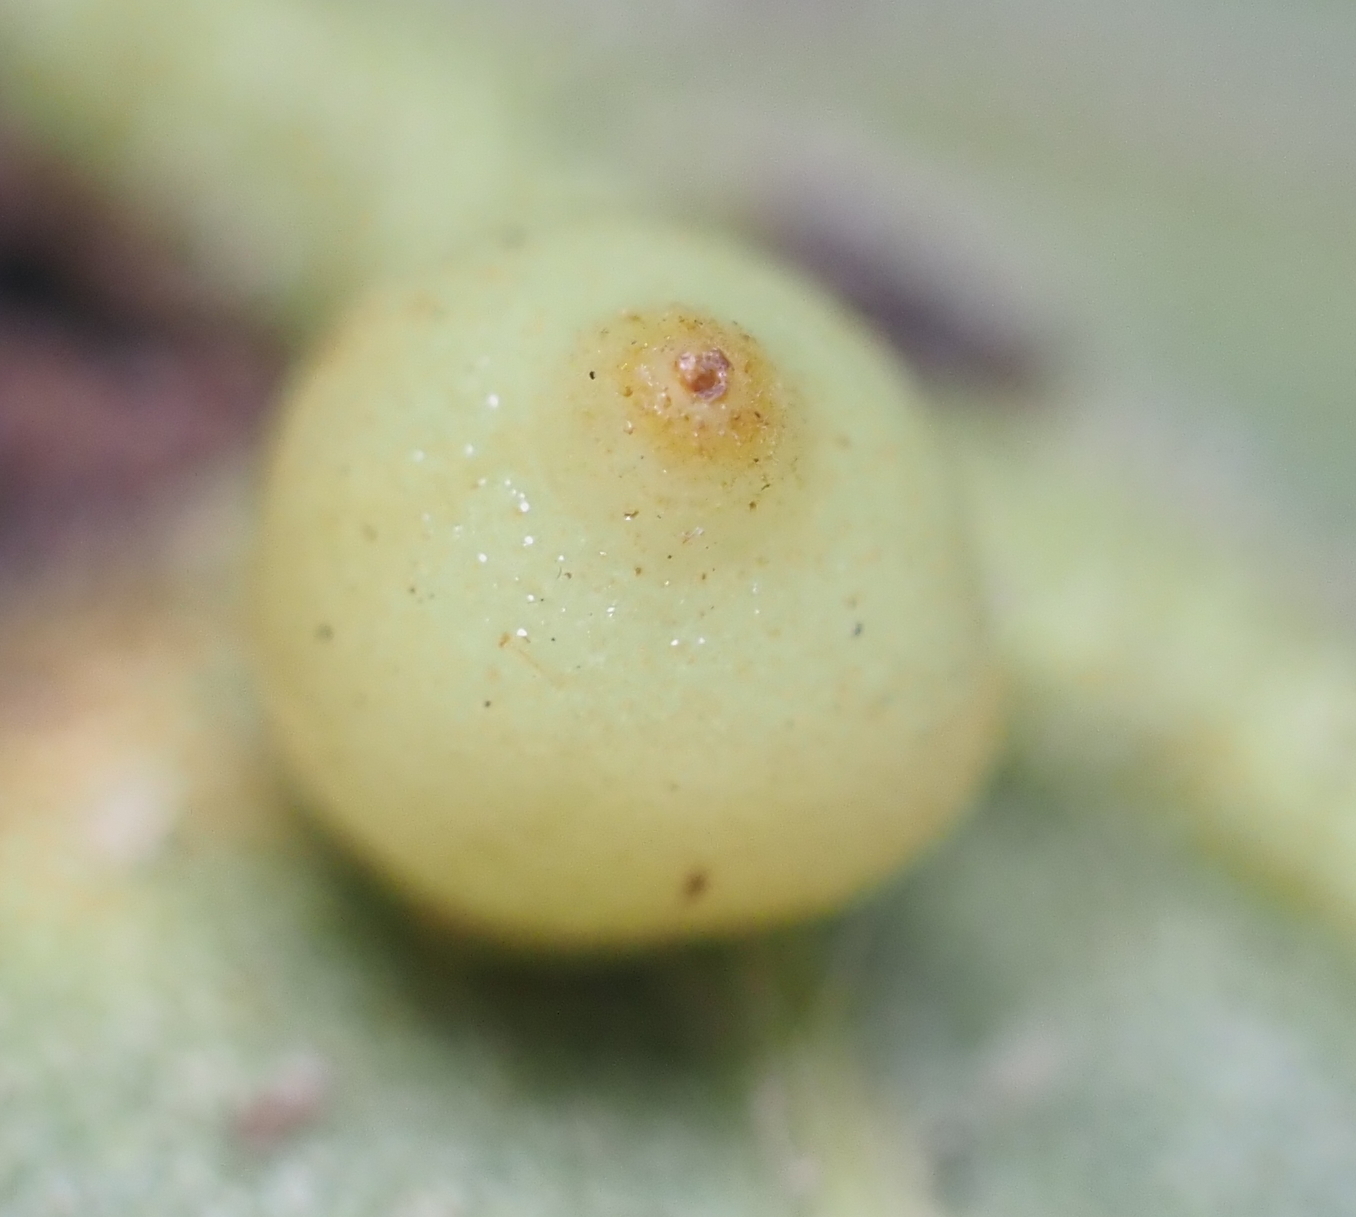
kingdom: Animalia
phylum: Arthropoda
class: Insecta
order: Diptera
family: Cecidomyiidae
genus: Caryomyia
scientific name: Caryomyia caryae
